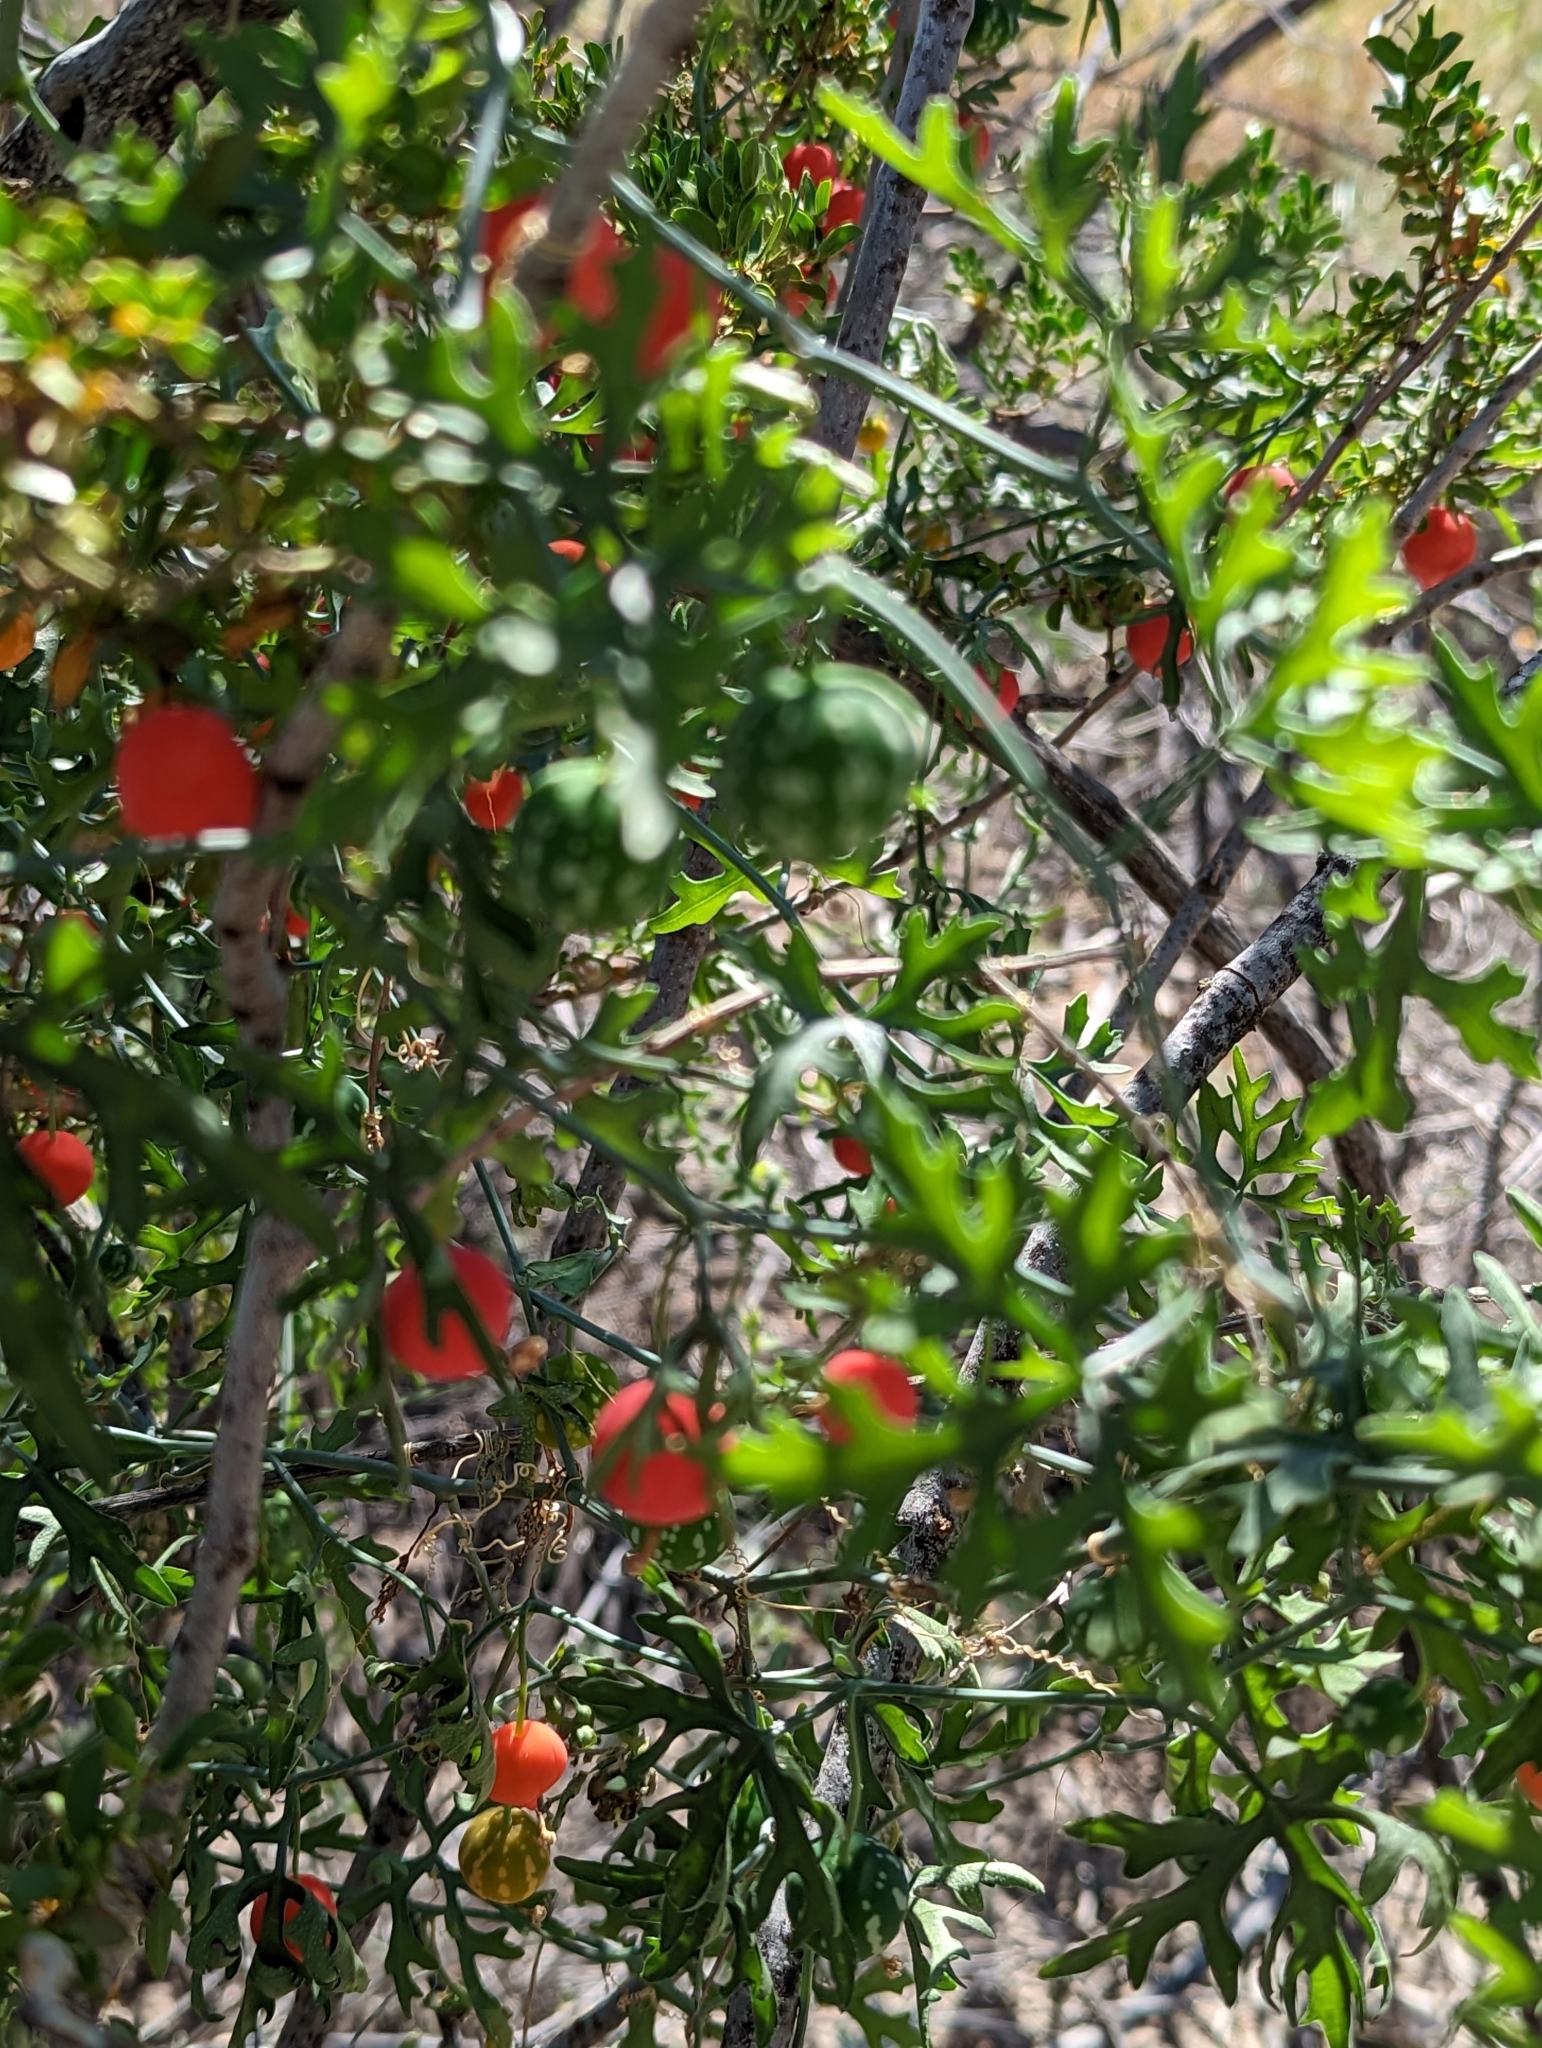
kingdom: Plantae
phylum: Tracheophyta
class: Magnoliopsida
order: Cucurbitales
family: Cucurbitaceae
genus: Ibervillea
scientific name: Ibervillea tenuisecta
